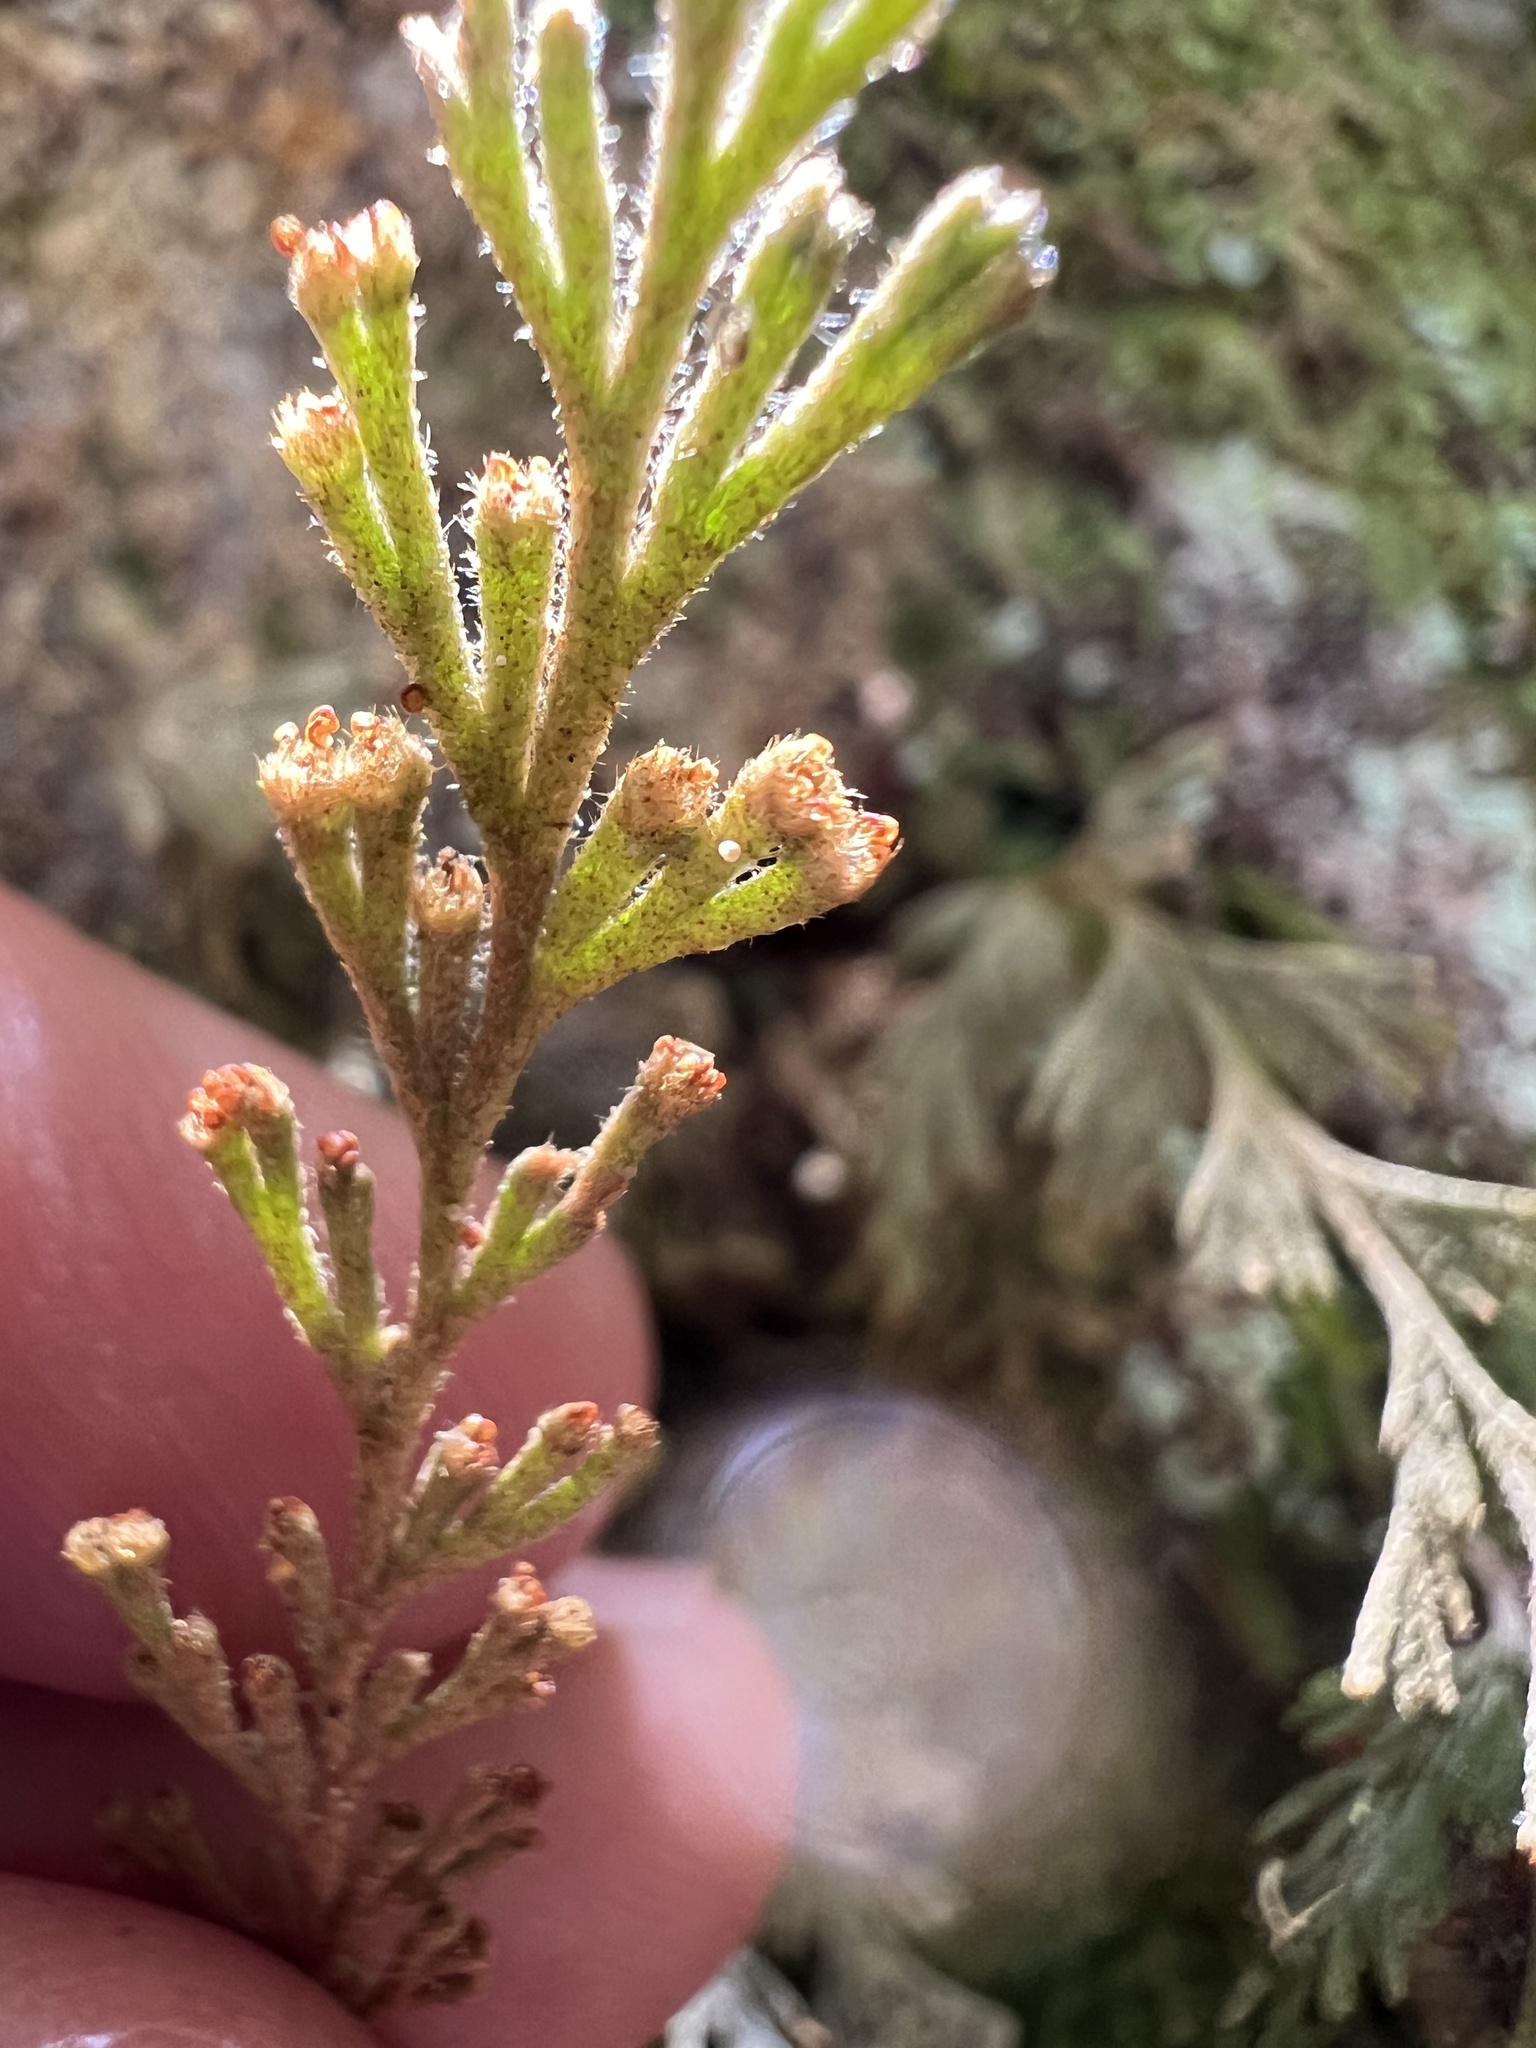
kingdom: Plantae
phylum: Tracheophyta
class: Polypodiopsida
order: Hymenophyllales
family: Hymenophyllaceae
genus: Hymenophyllum
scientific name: Hymenophyllum malingii
